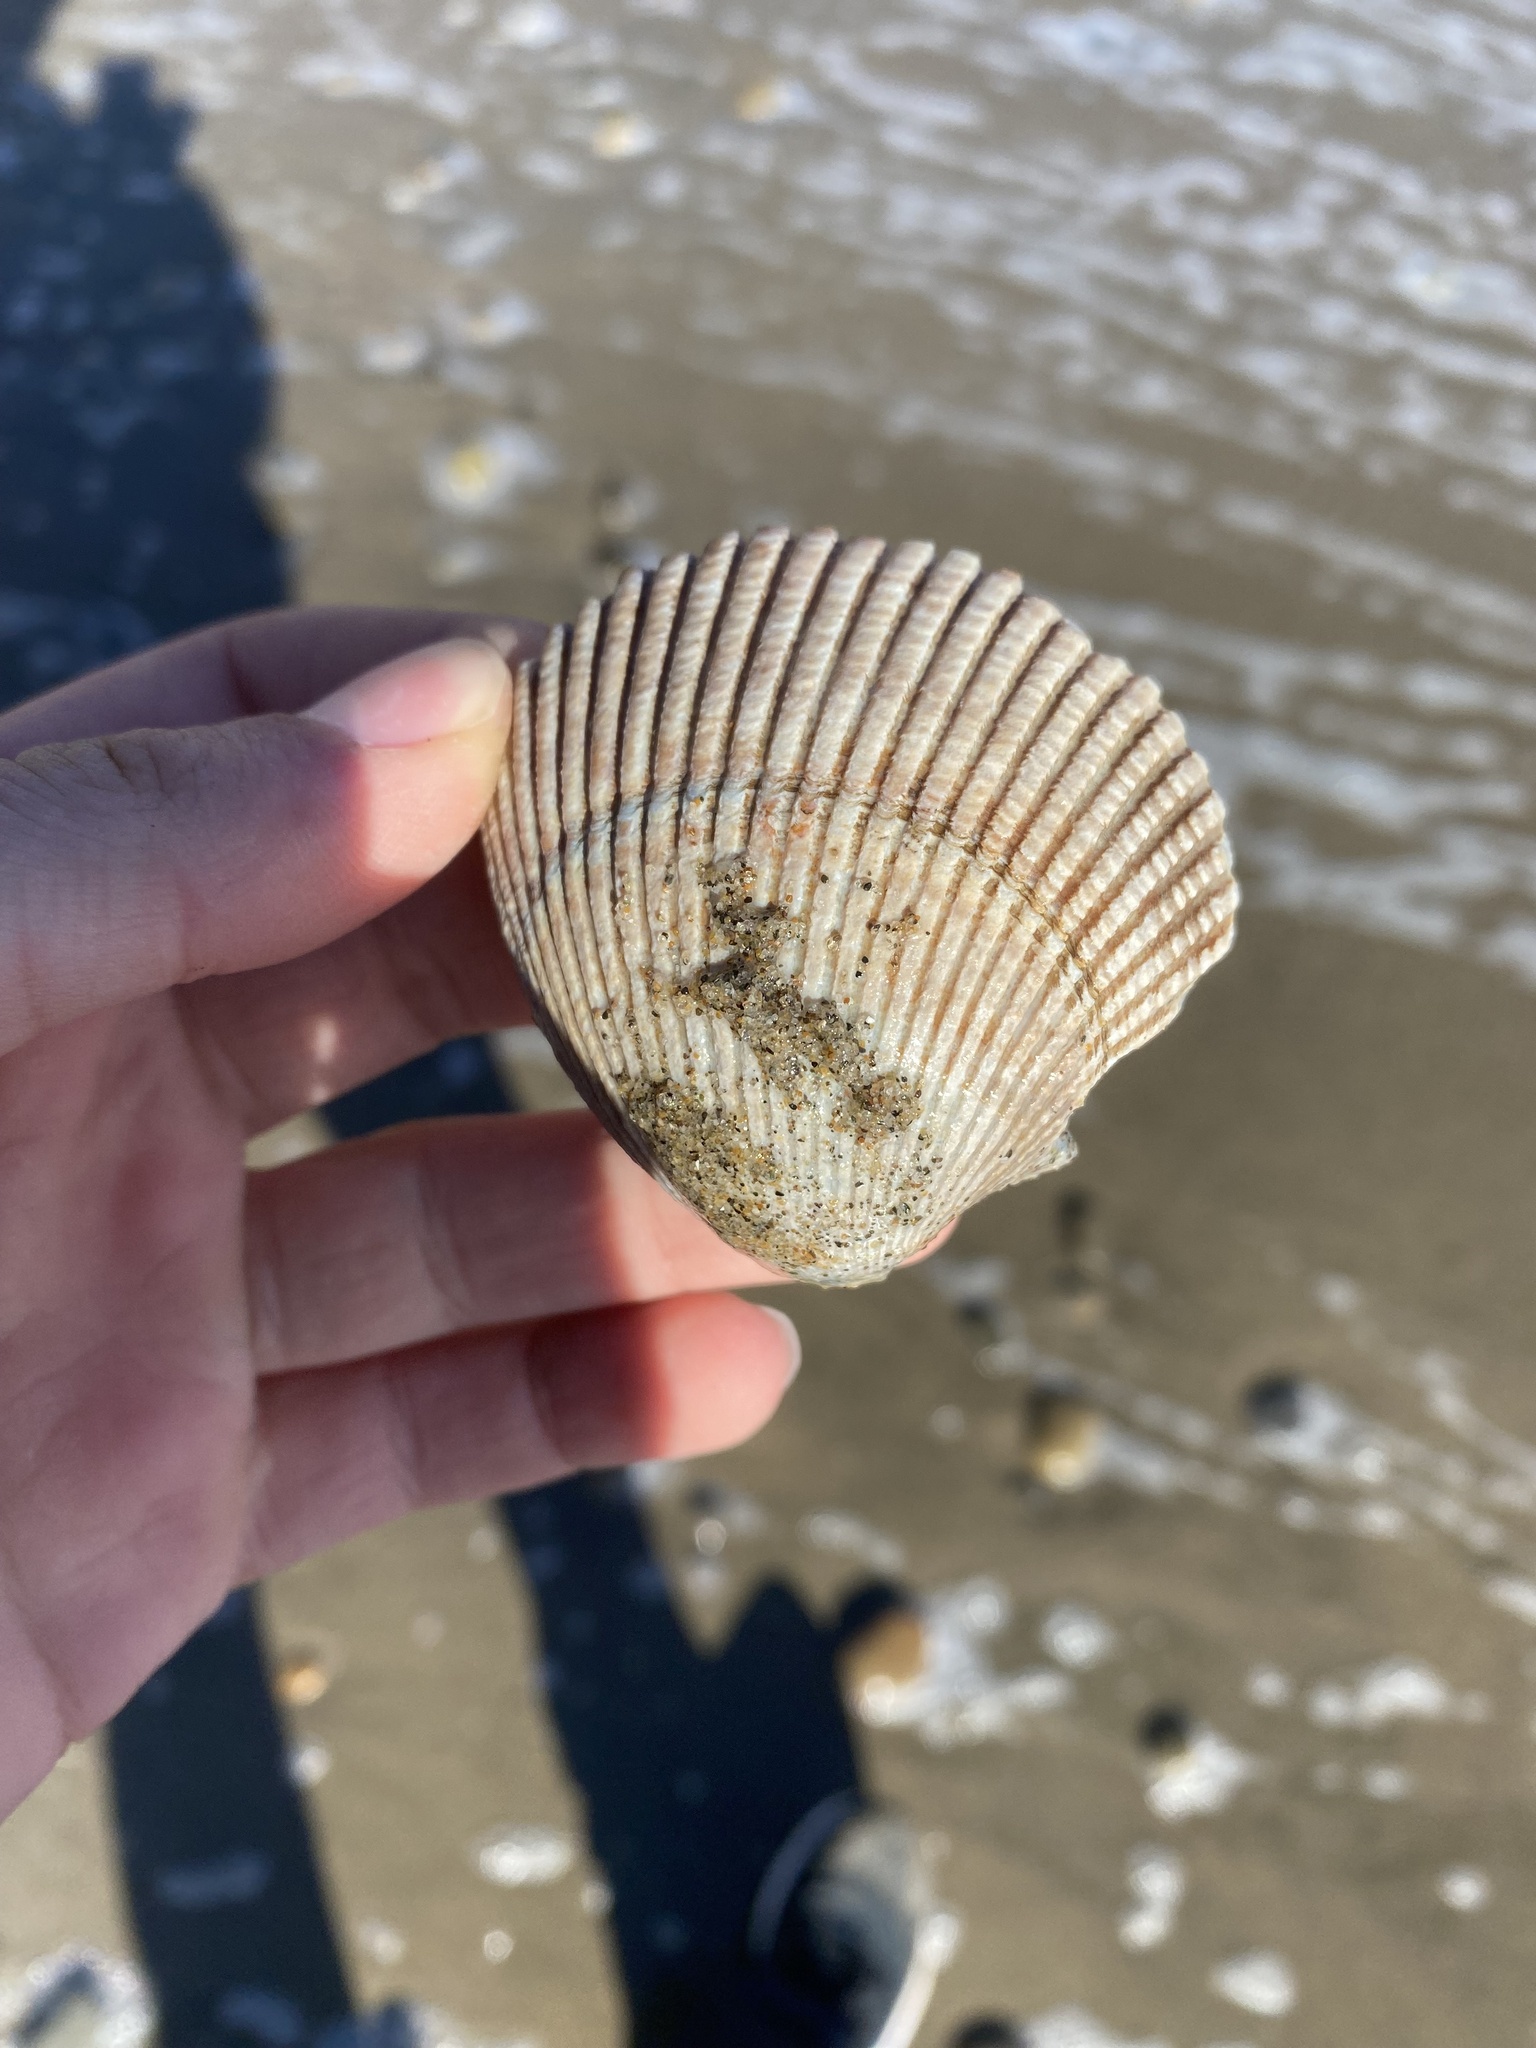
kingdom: Animalia
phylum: Mollusca
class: Bivalvia
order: Cardiida
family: Cardiidae
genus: Clinocardium
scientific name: Clinocardium nuttallii
